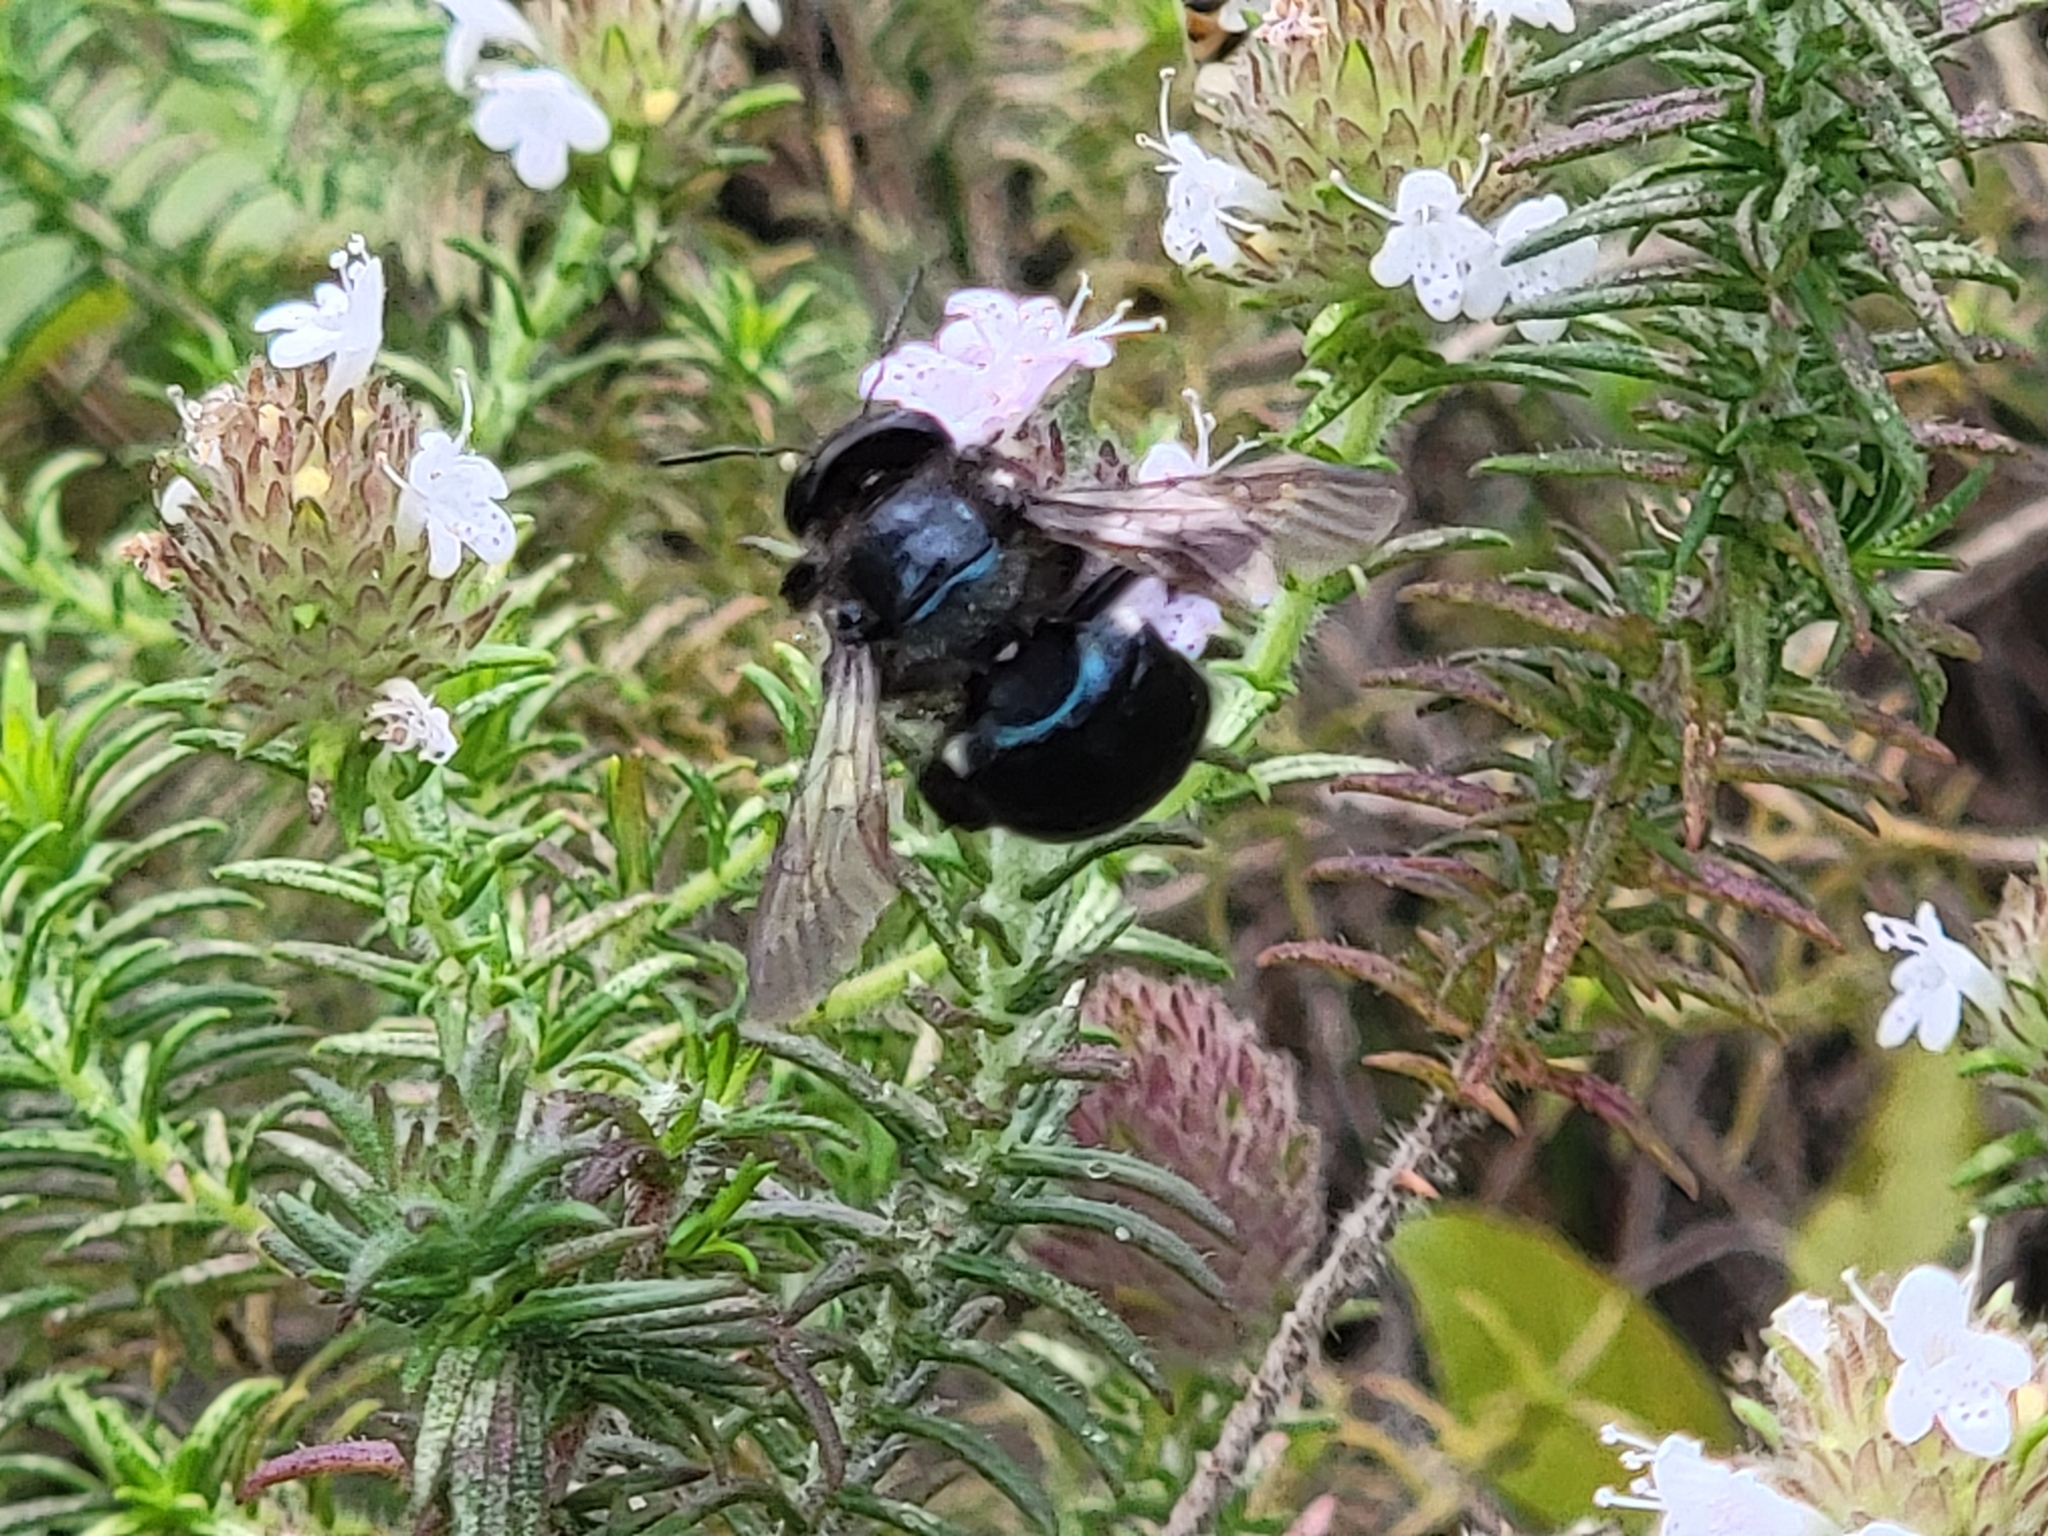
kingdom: Animalia
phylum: Arthropoda
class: Insecta
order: Hymenoptera
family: Apidae
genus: Xylocopa
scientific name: Xylocopa micans
